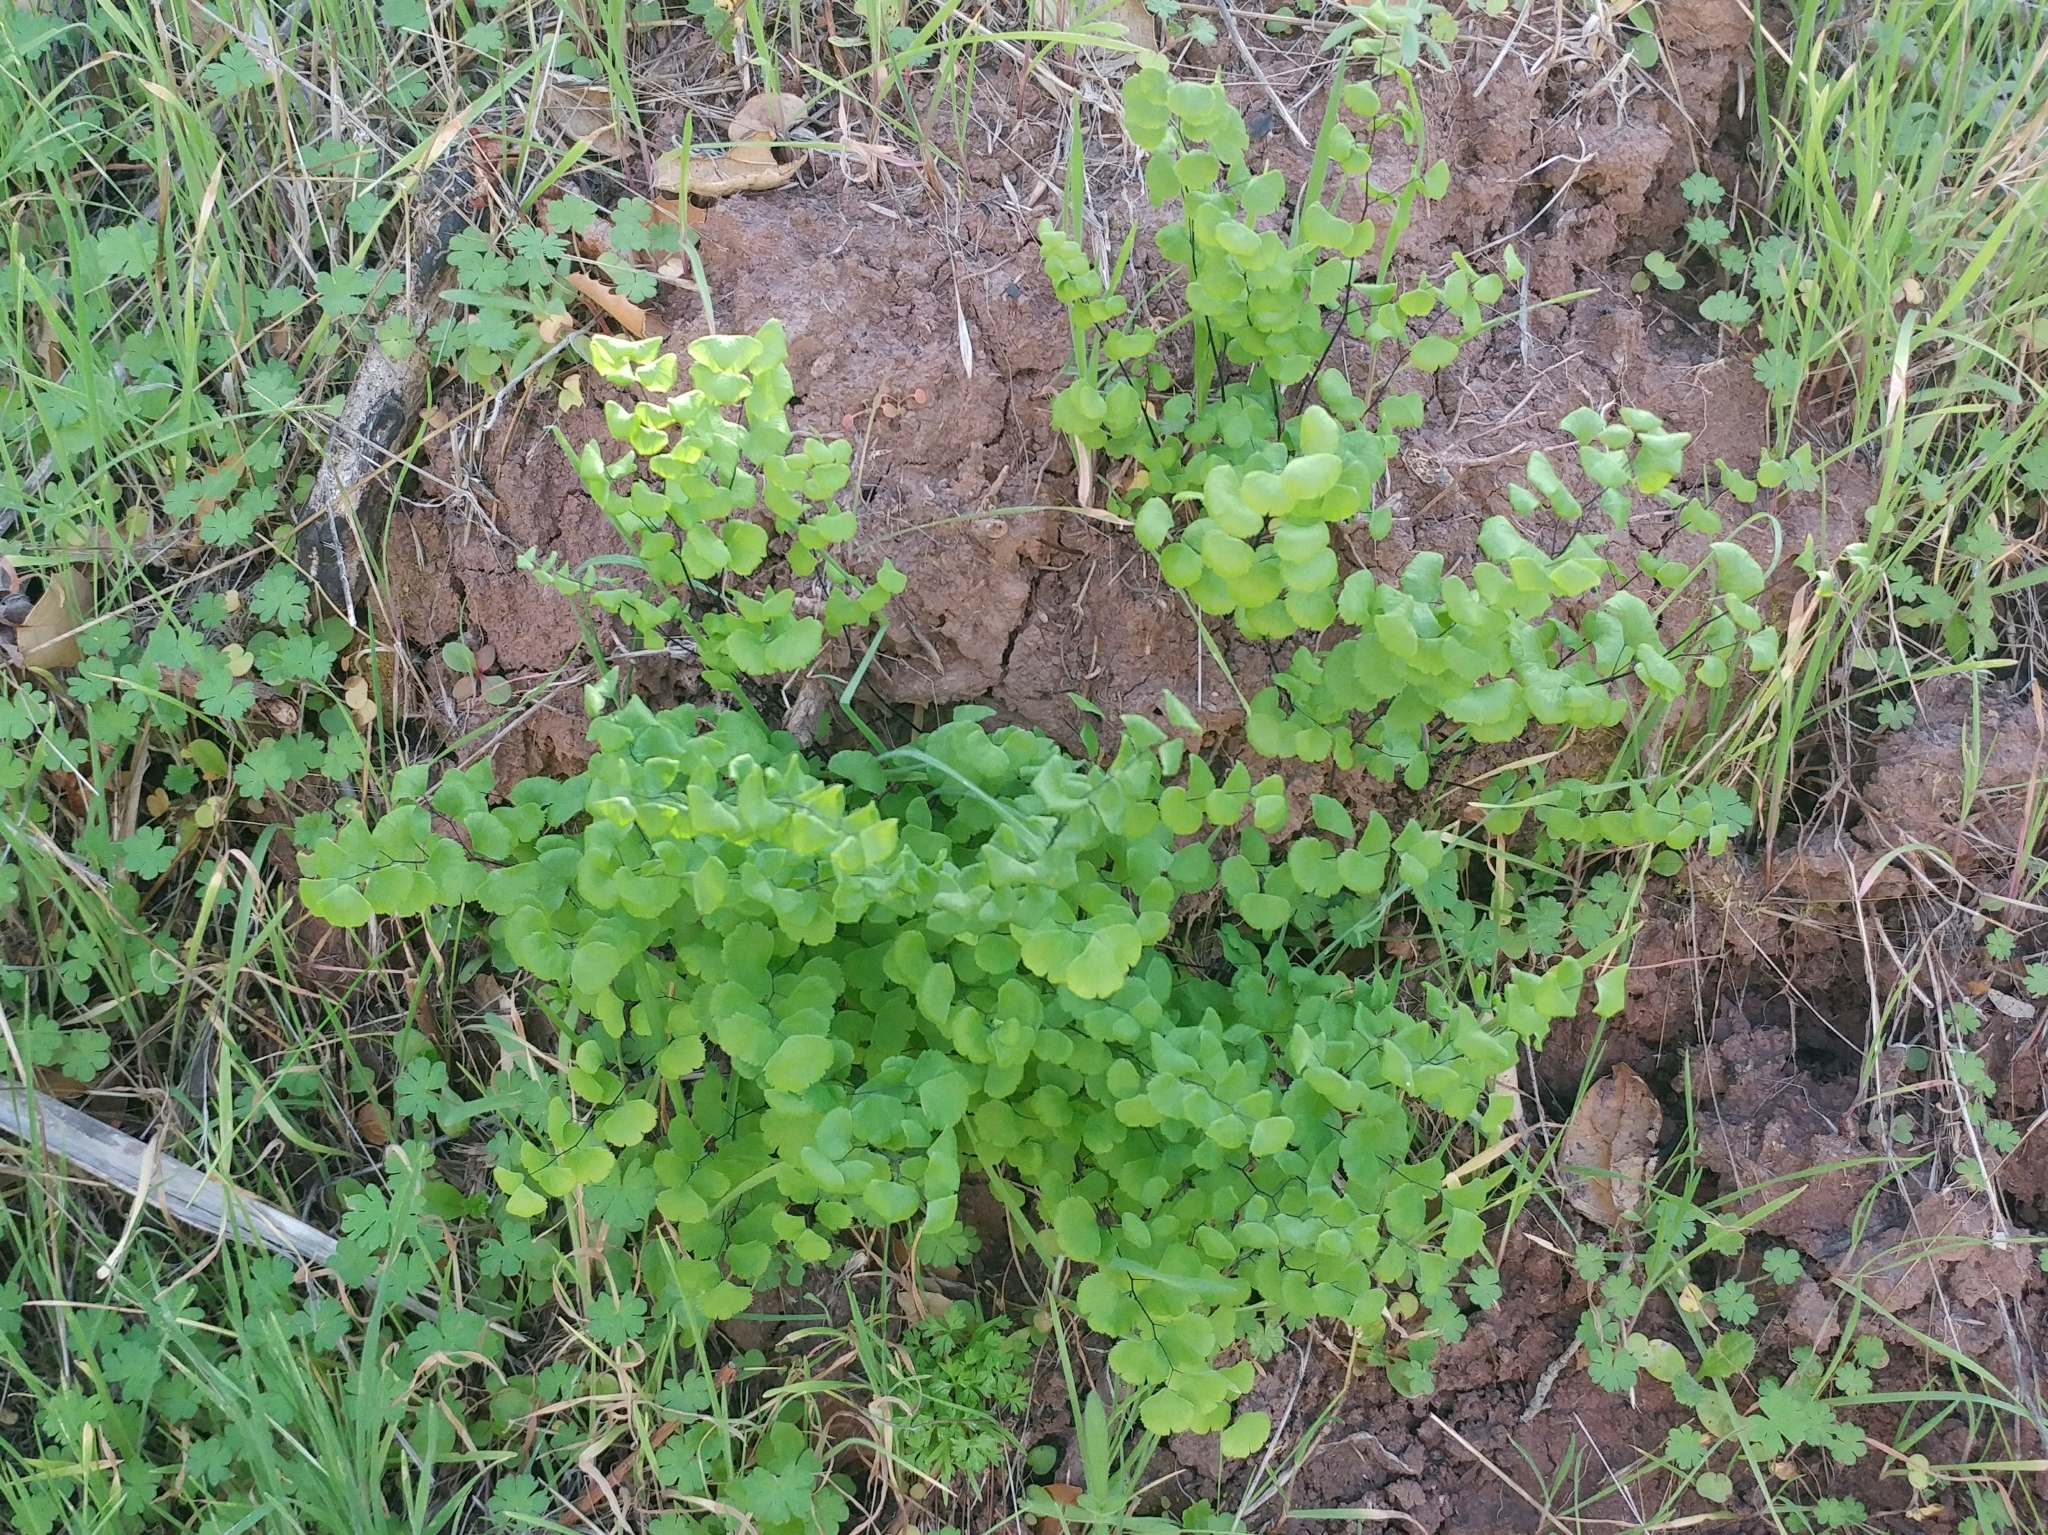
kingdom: Plantae
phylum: Tracheophyta
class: Polypodiopsida
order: Polypodiales
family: Pteridaceae
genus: Adiantum
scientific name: Adiantum jordanii
